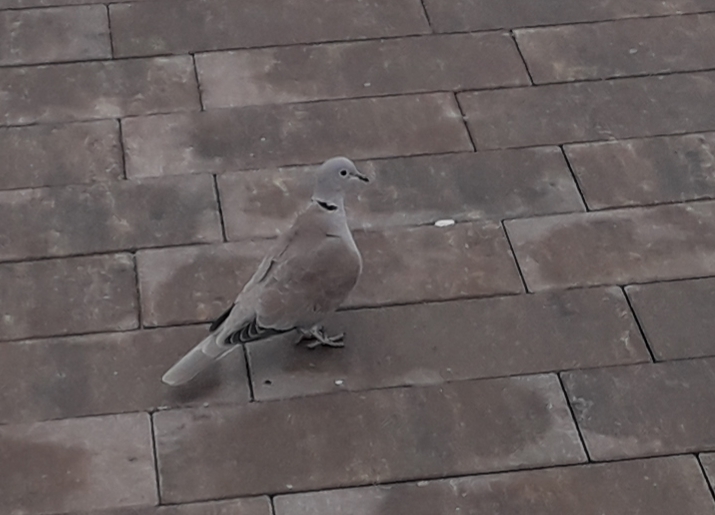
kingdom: Animalia
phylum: Chordata
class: Aves
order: Columbiformes
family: Columbidae
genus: Streptopelia
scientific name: Streptopelia decaocto
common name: Eurasian collared dove
